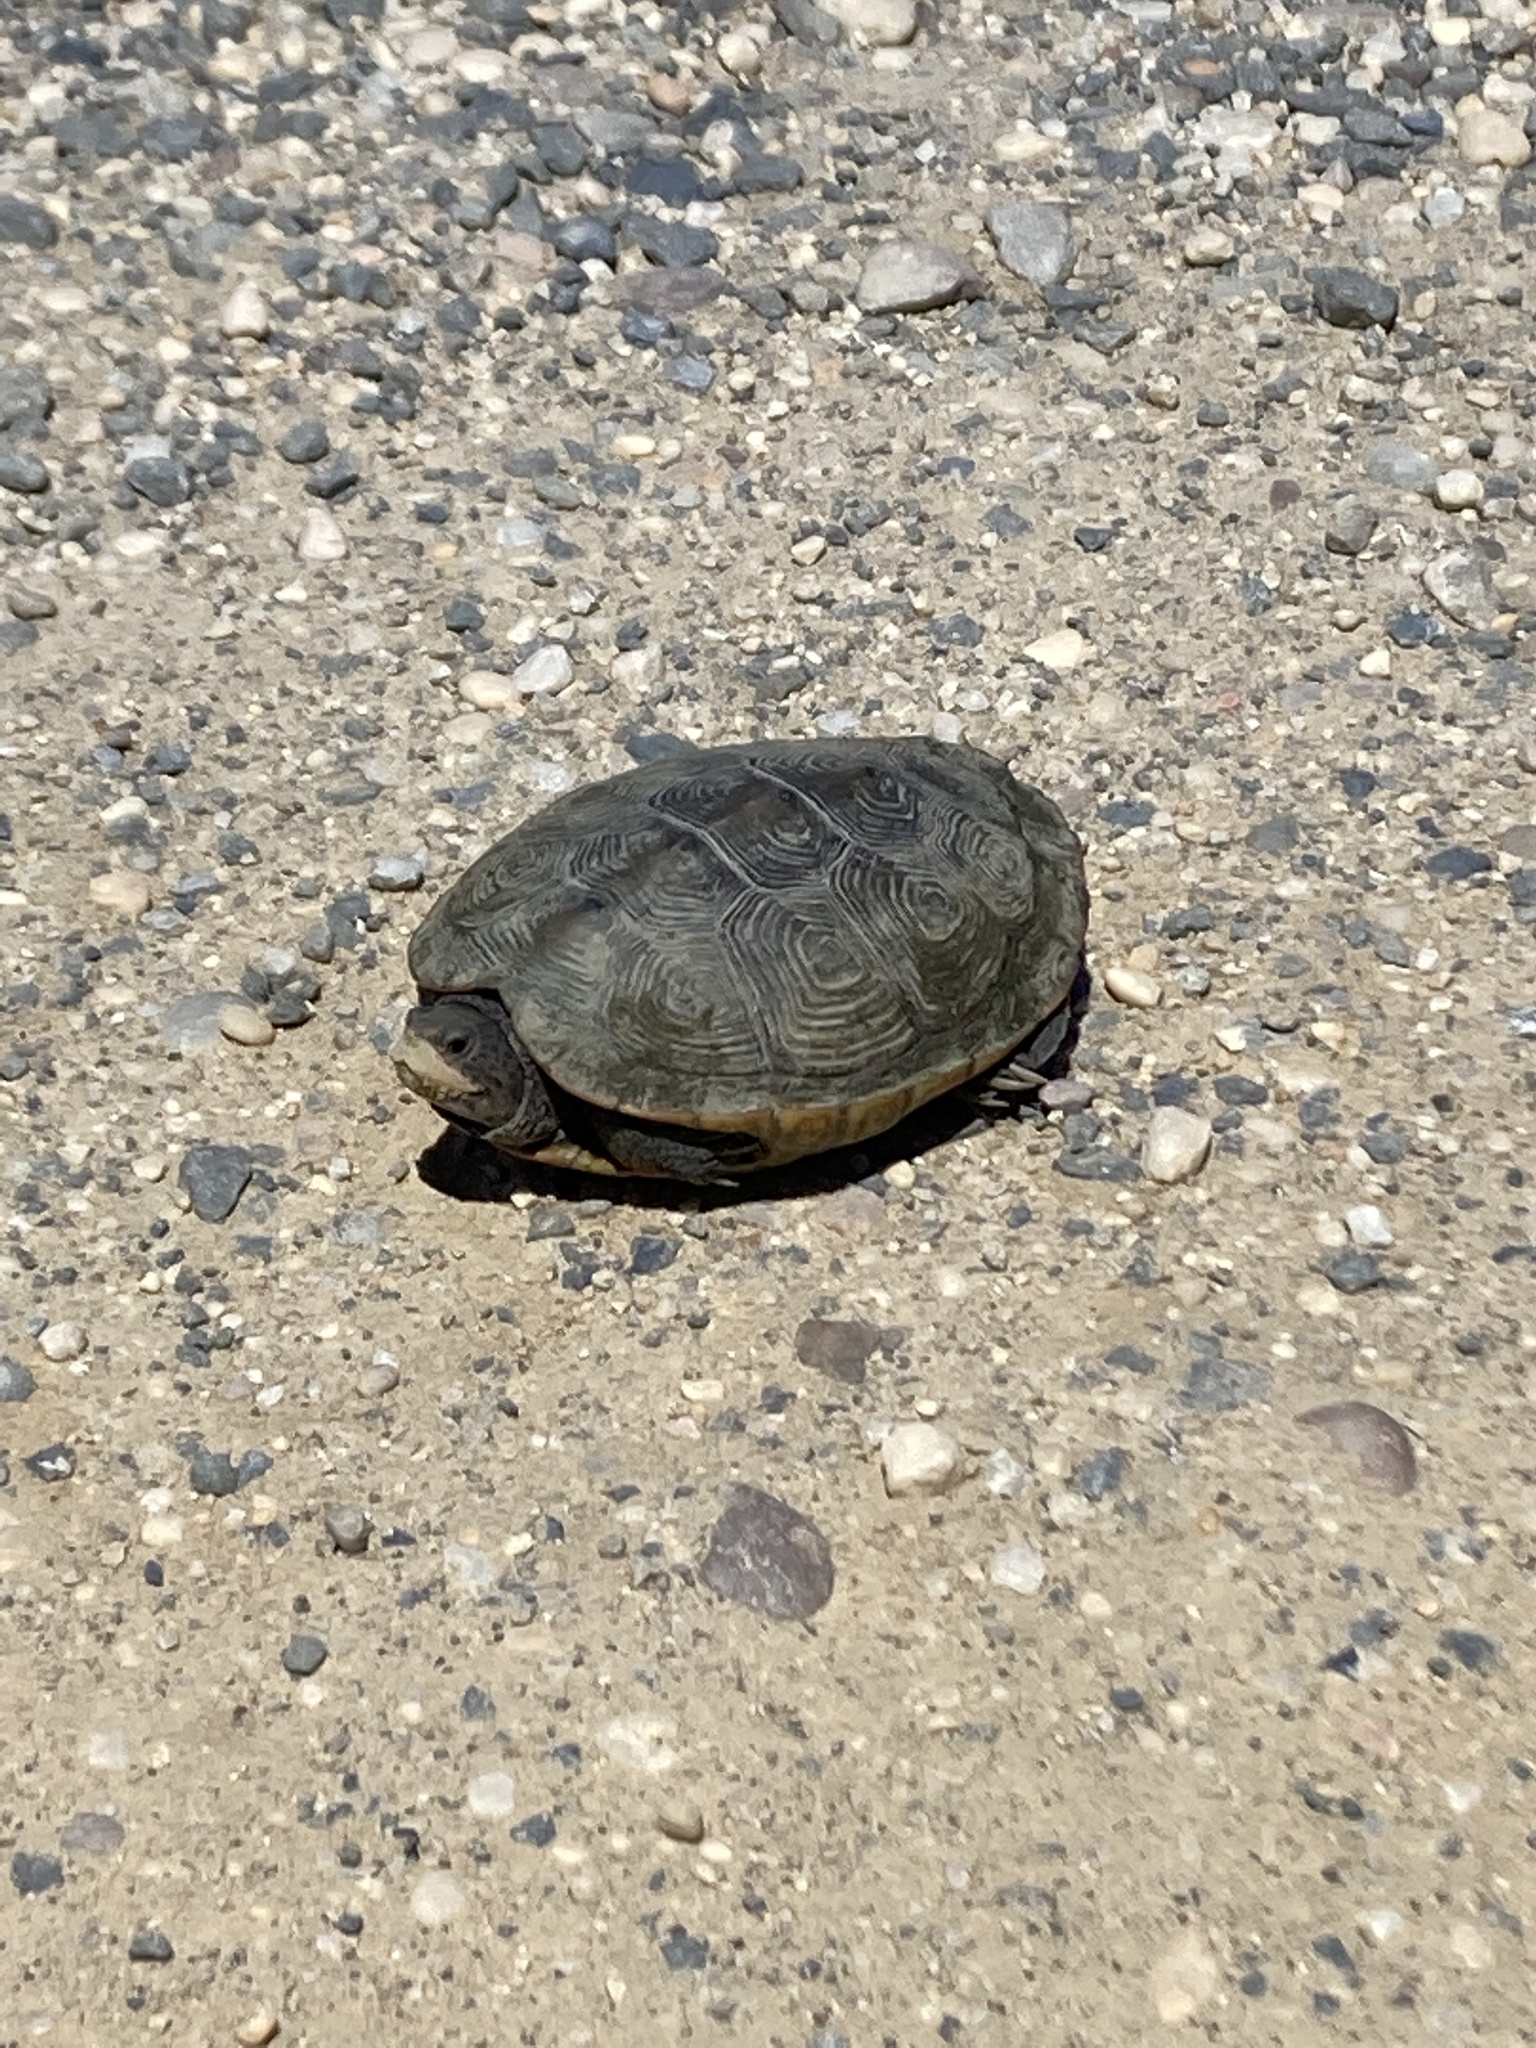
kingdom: Animalia
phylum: Chordata
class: Testudines
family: Emydidae
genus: Malaclemys
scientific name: Malaclemys terrapin
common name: Diamondback terrapin
